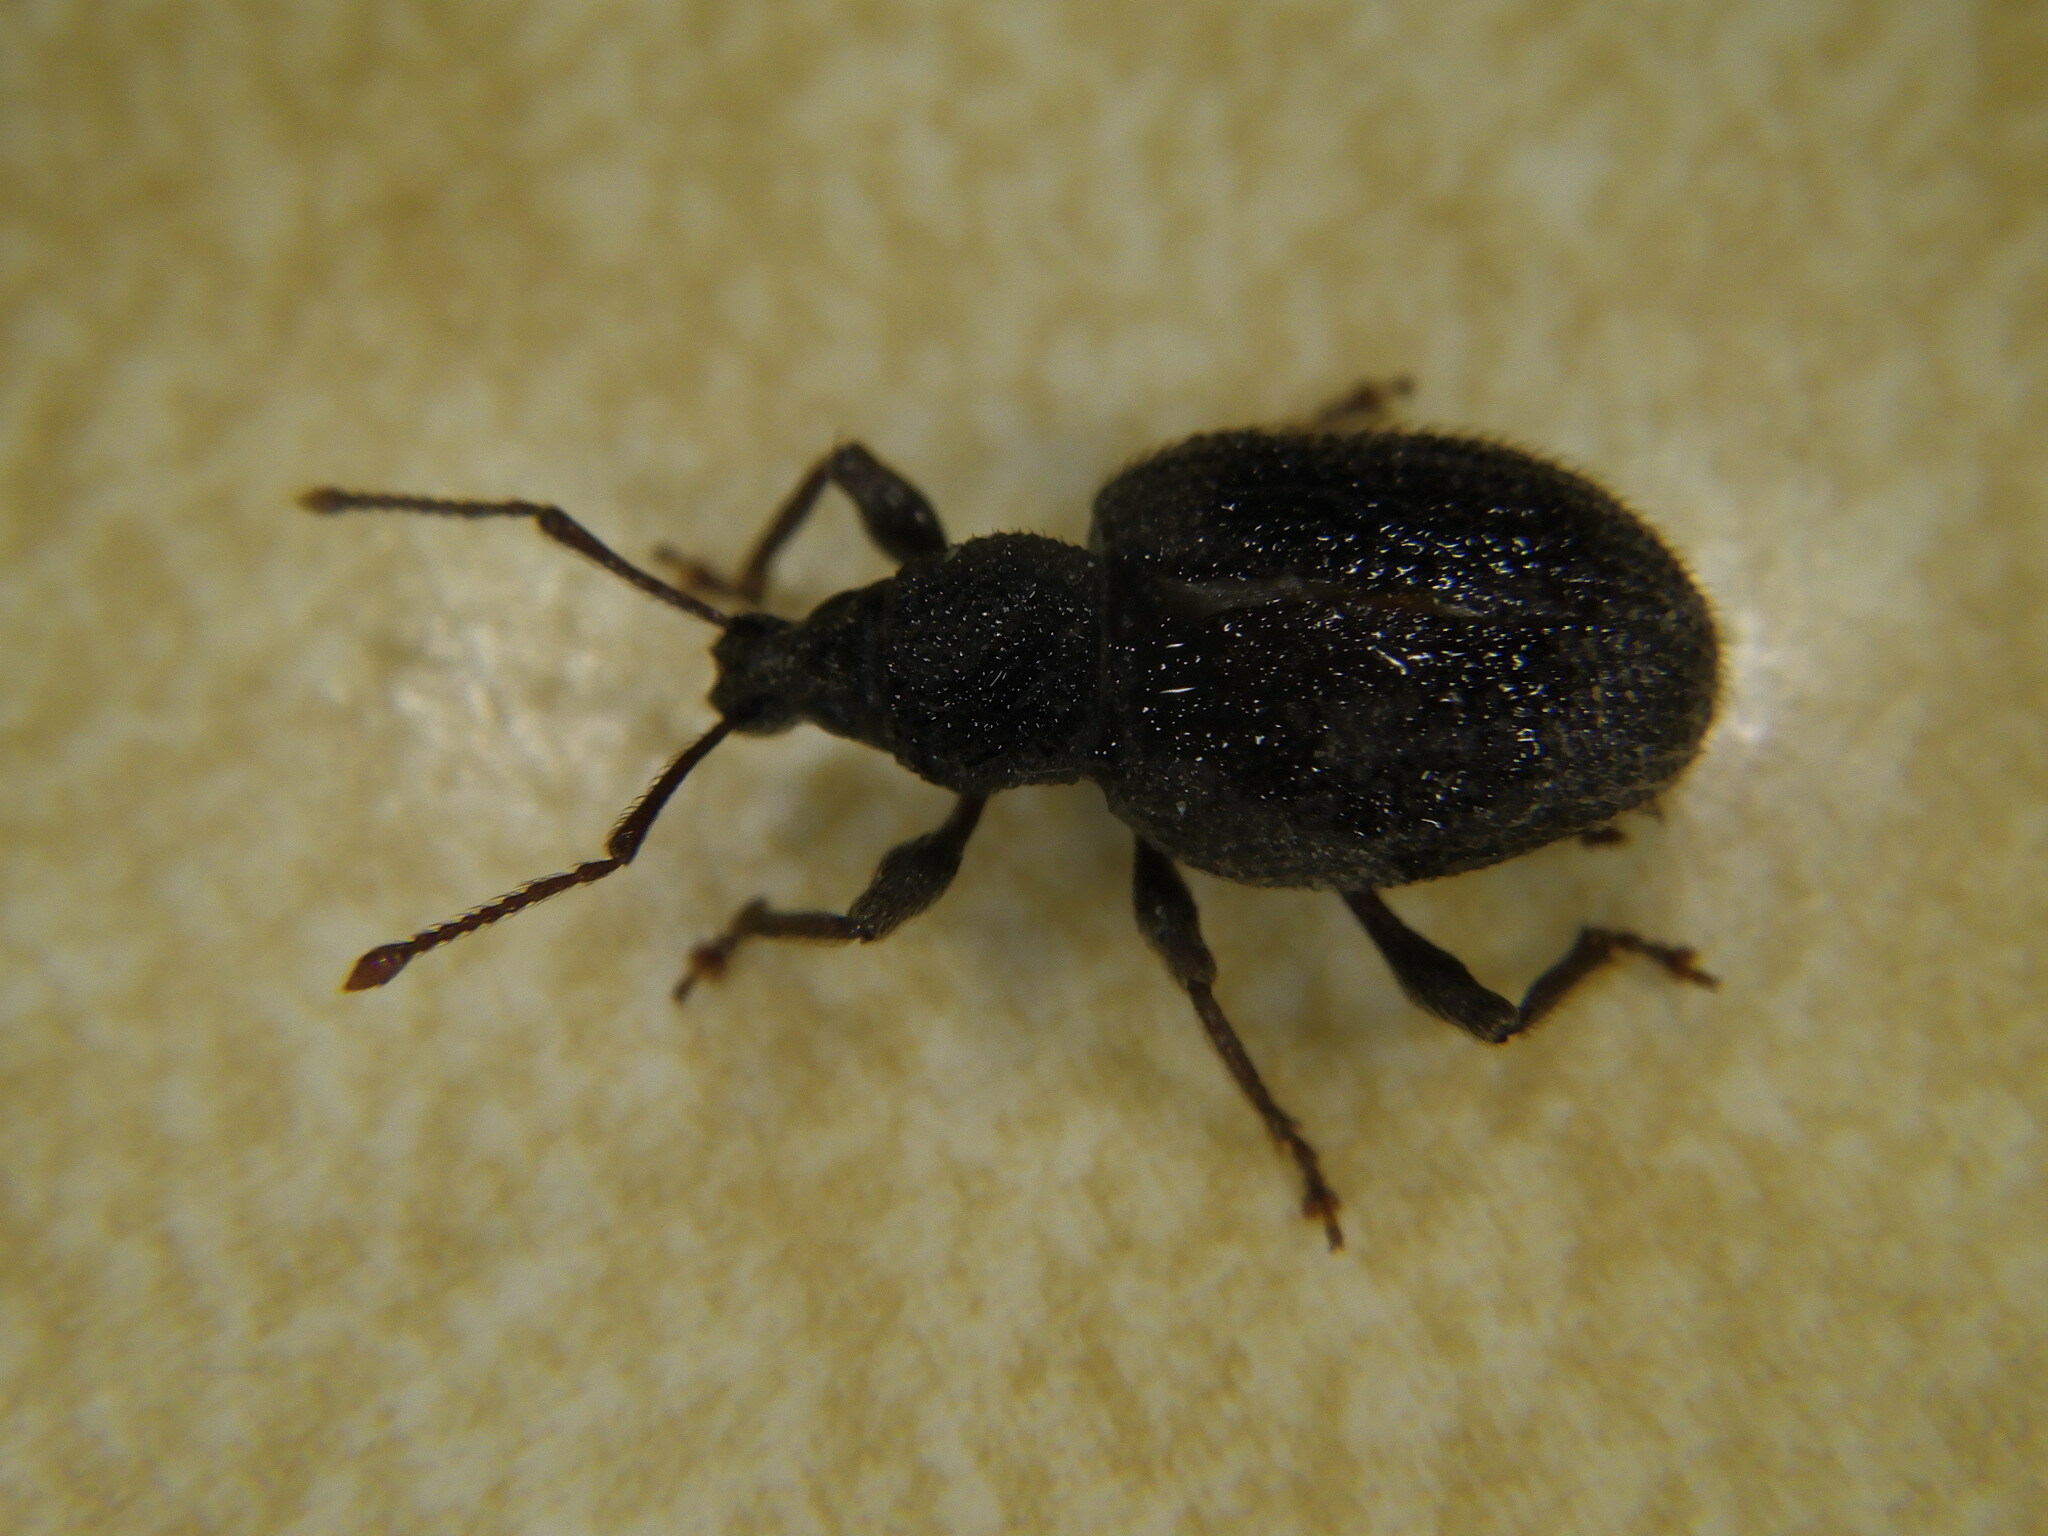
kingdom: Animalia
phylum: Arthropoda
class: Insecta
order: Coleoptera
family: Curculionidae
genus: Otiorhynchus
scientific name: Otiorhynchus rugosostriatus
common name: Weevil
